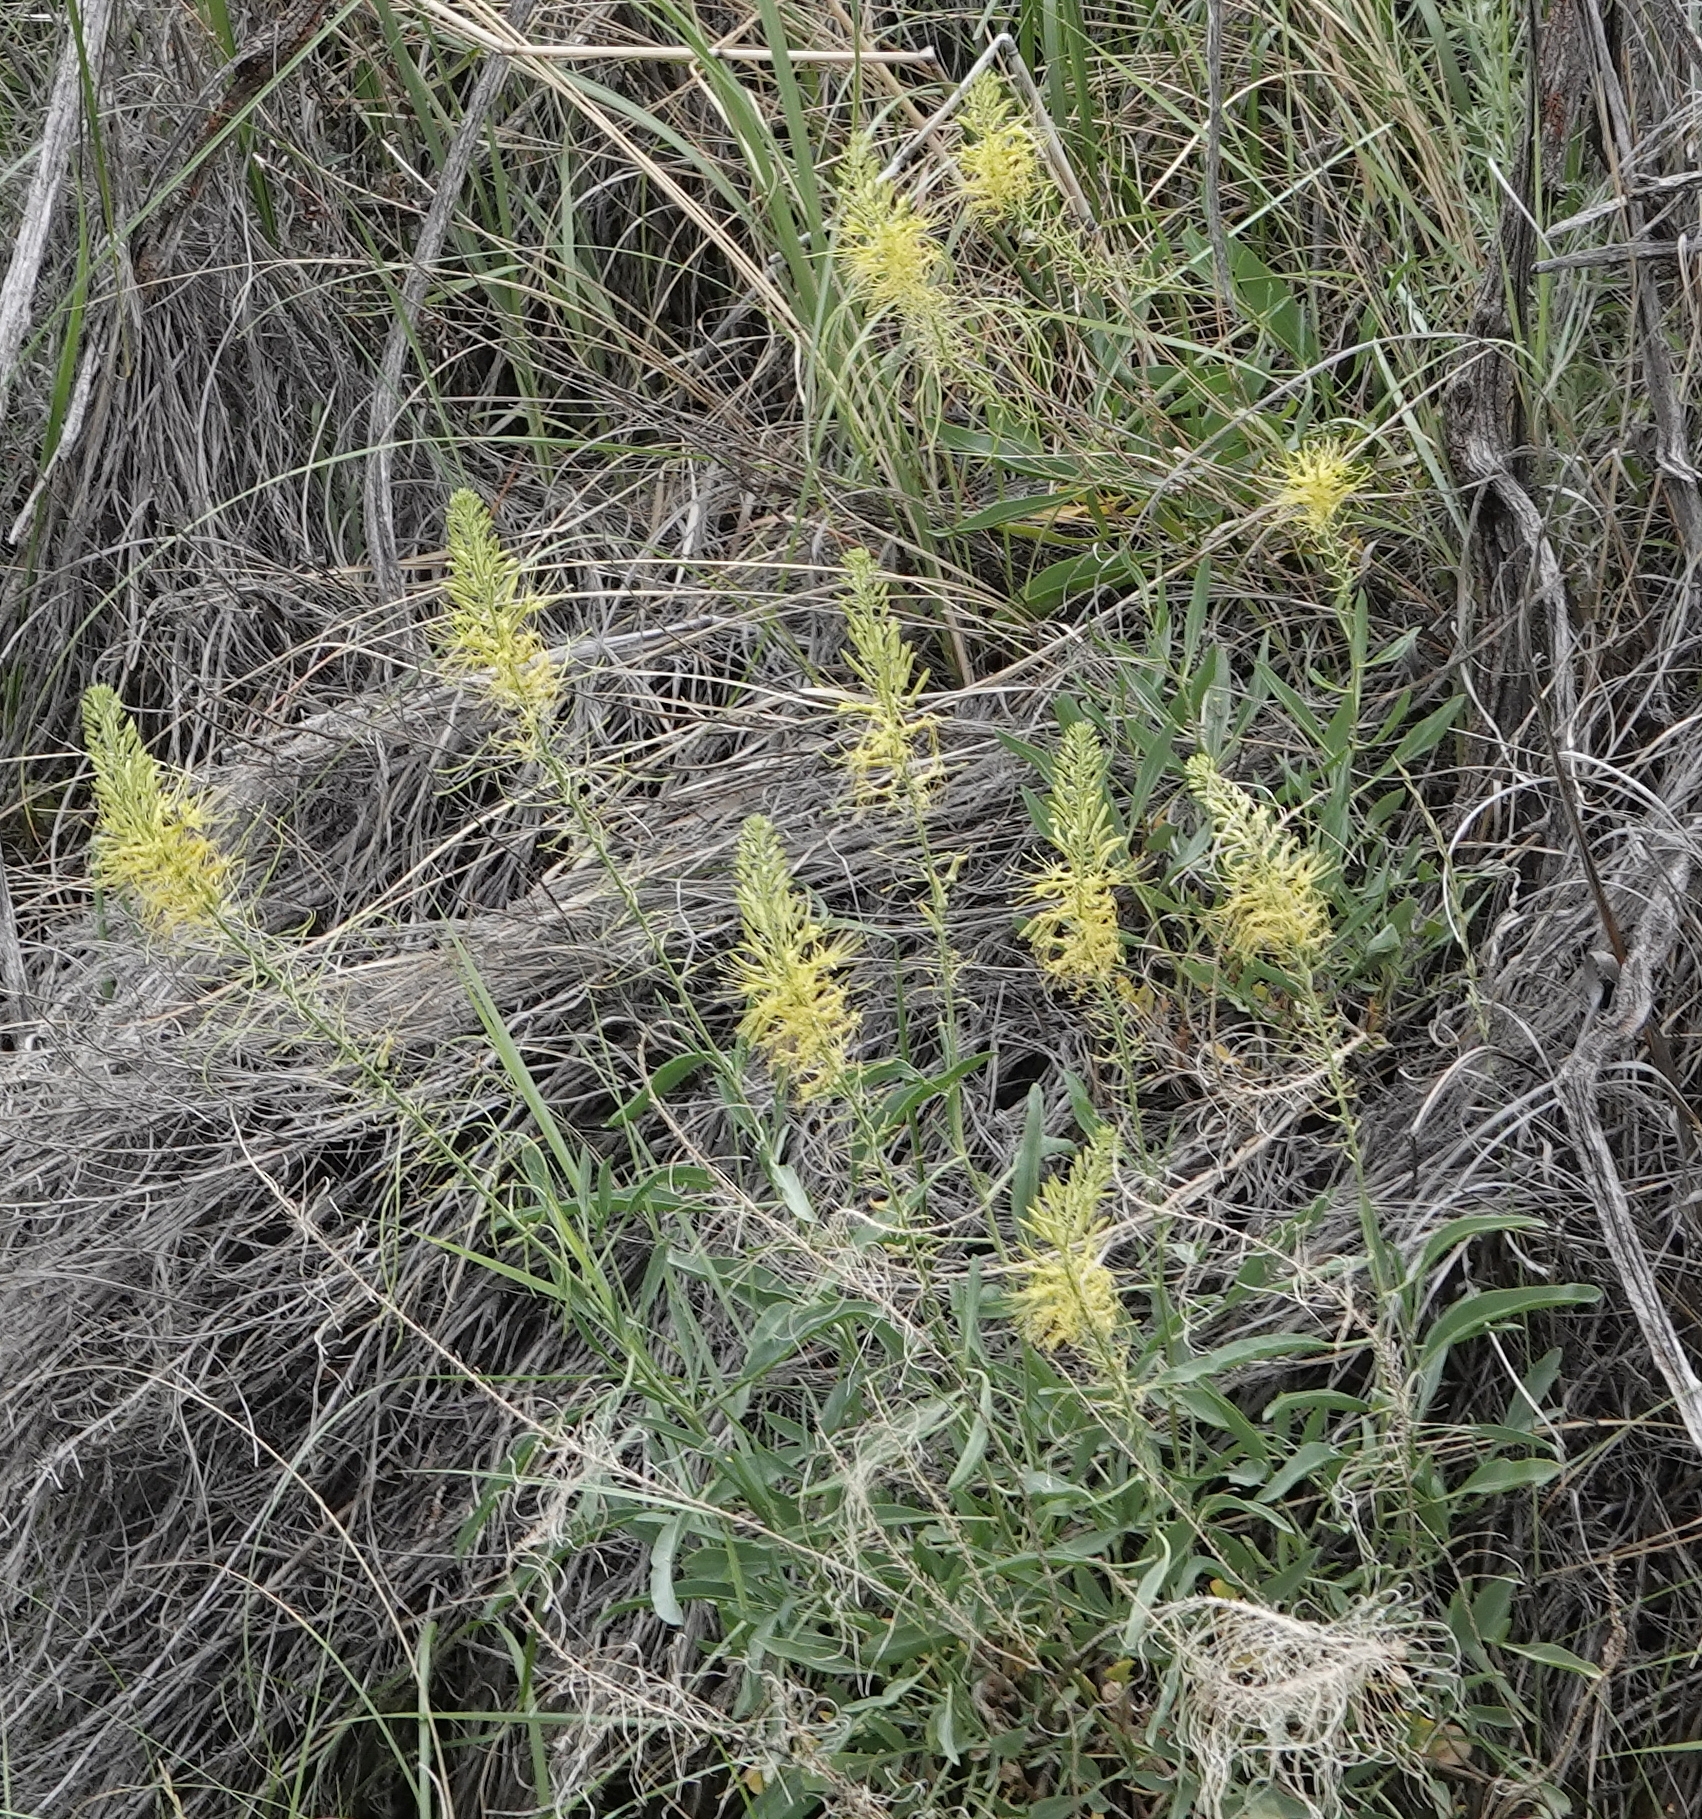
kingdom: Plantae
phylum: Tracheophyta
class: Magnoliopsida
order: Brassicales
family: Brassicaceae
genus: Stanleya
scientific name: Stanleya pinnata
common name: Prince's-plume
